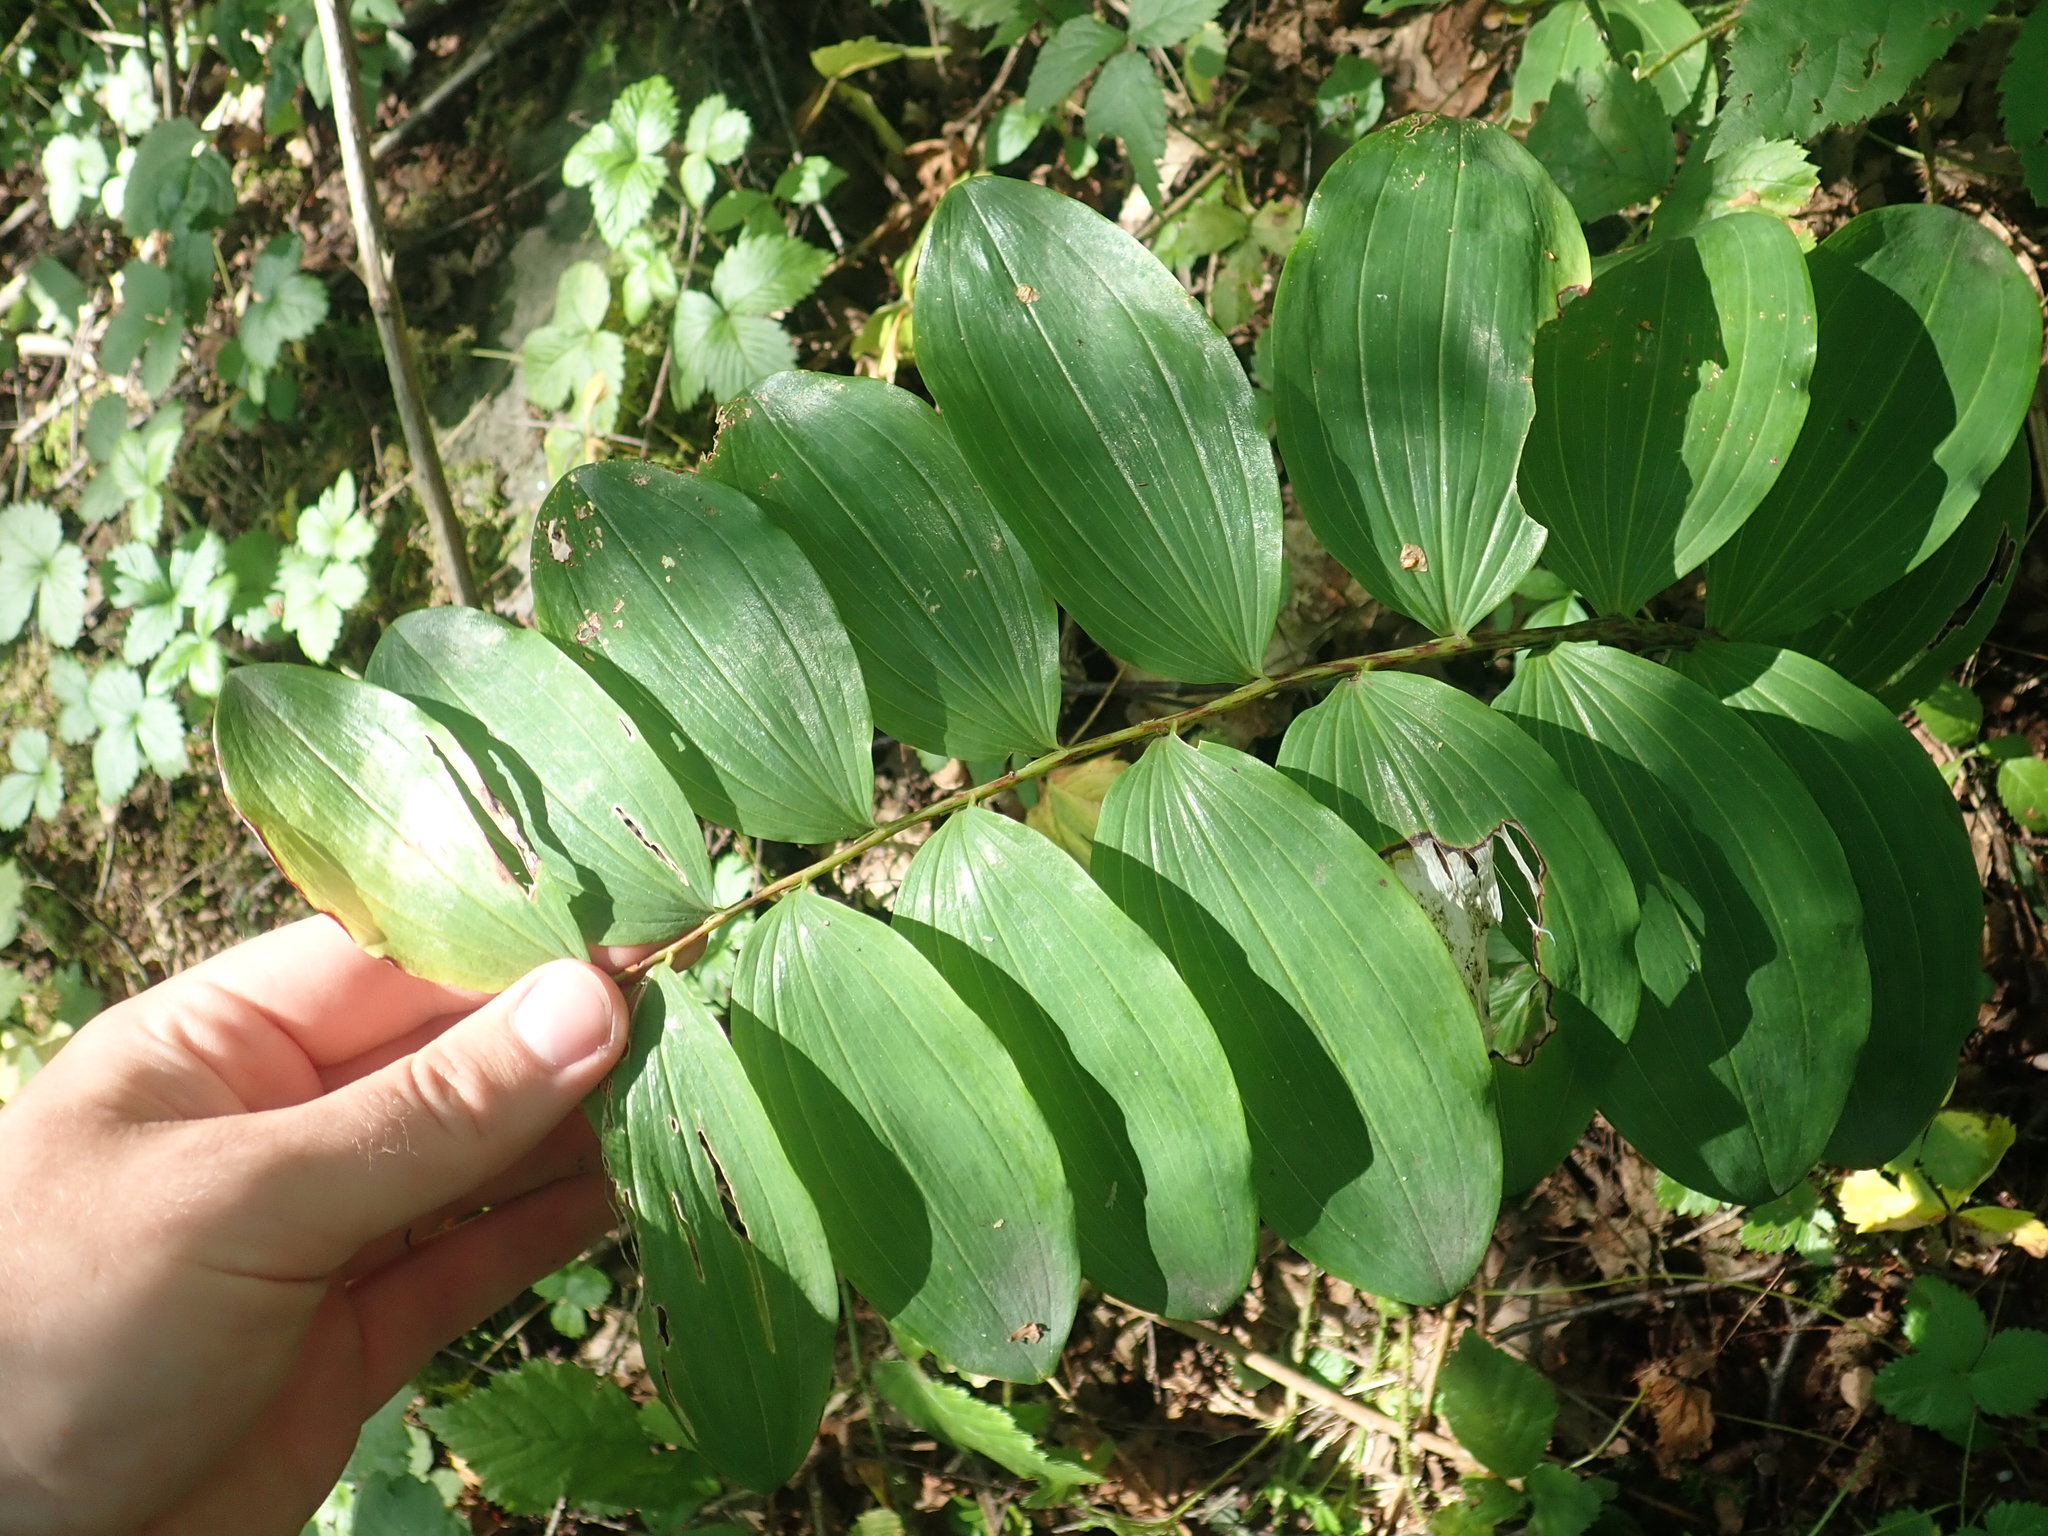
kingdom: Plantae
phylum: Tracheophyta
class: Liliopsida
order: Asparagales
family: Asparagaceae
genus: Polygonatum
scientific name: Polygonatum multiflorum
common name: Solomon's-seal
